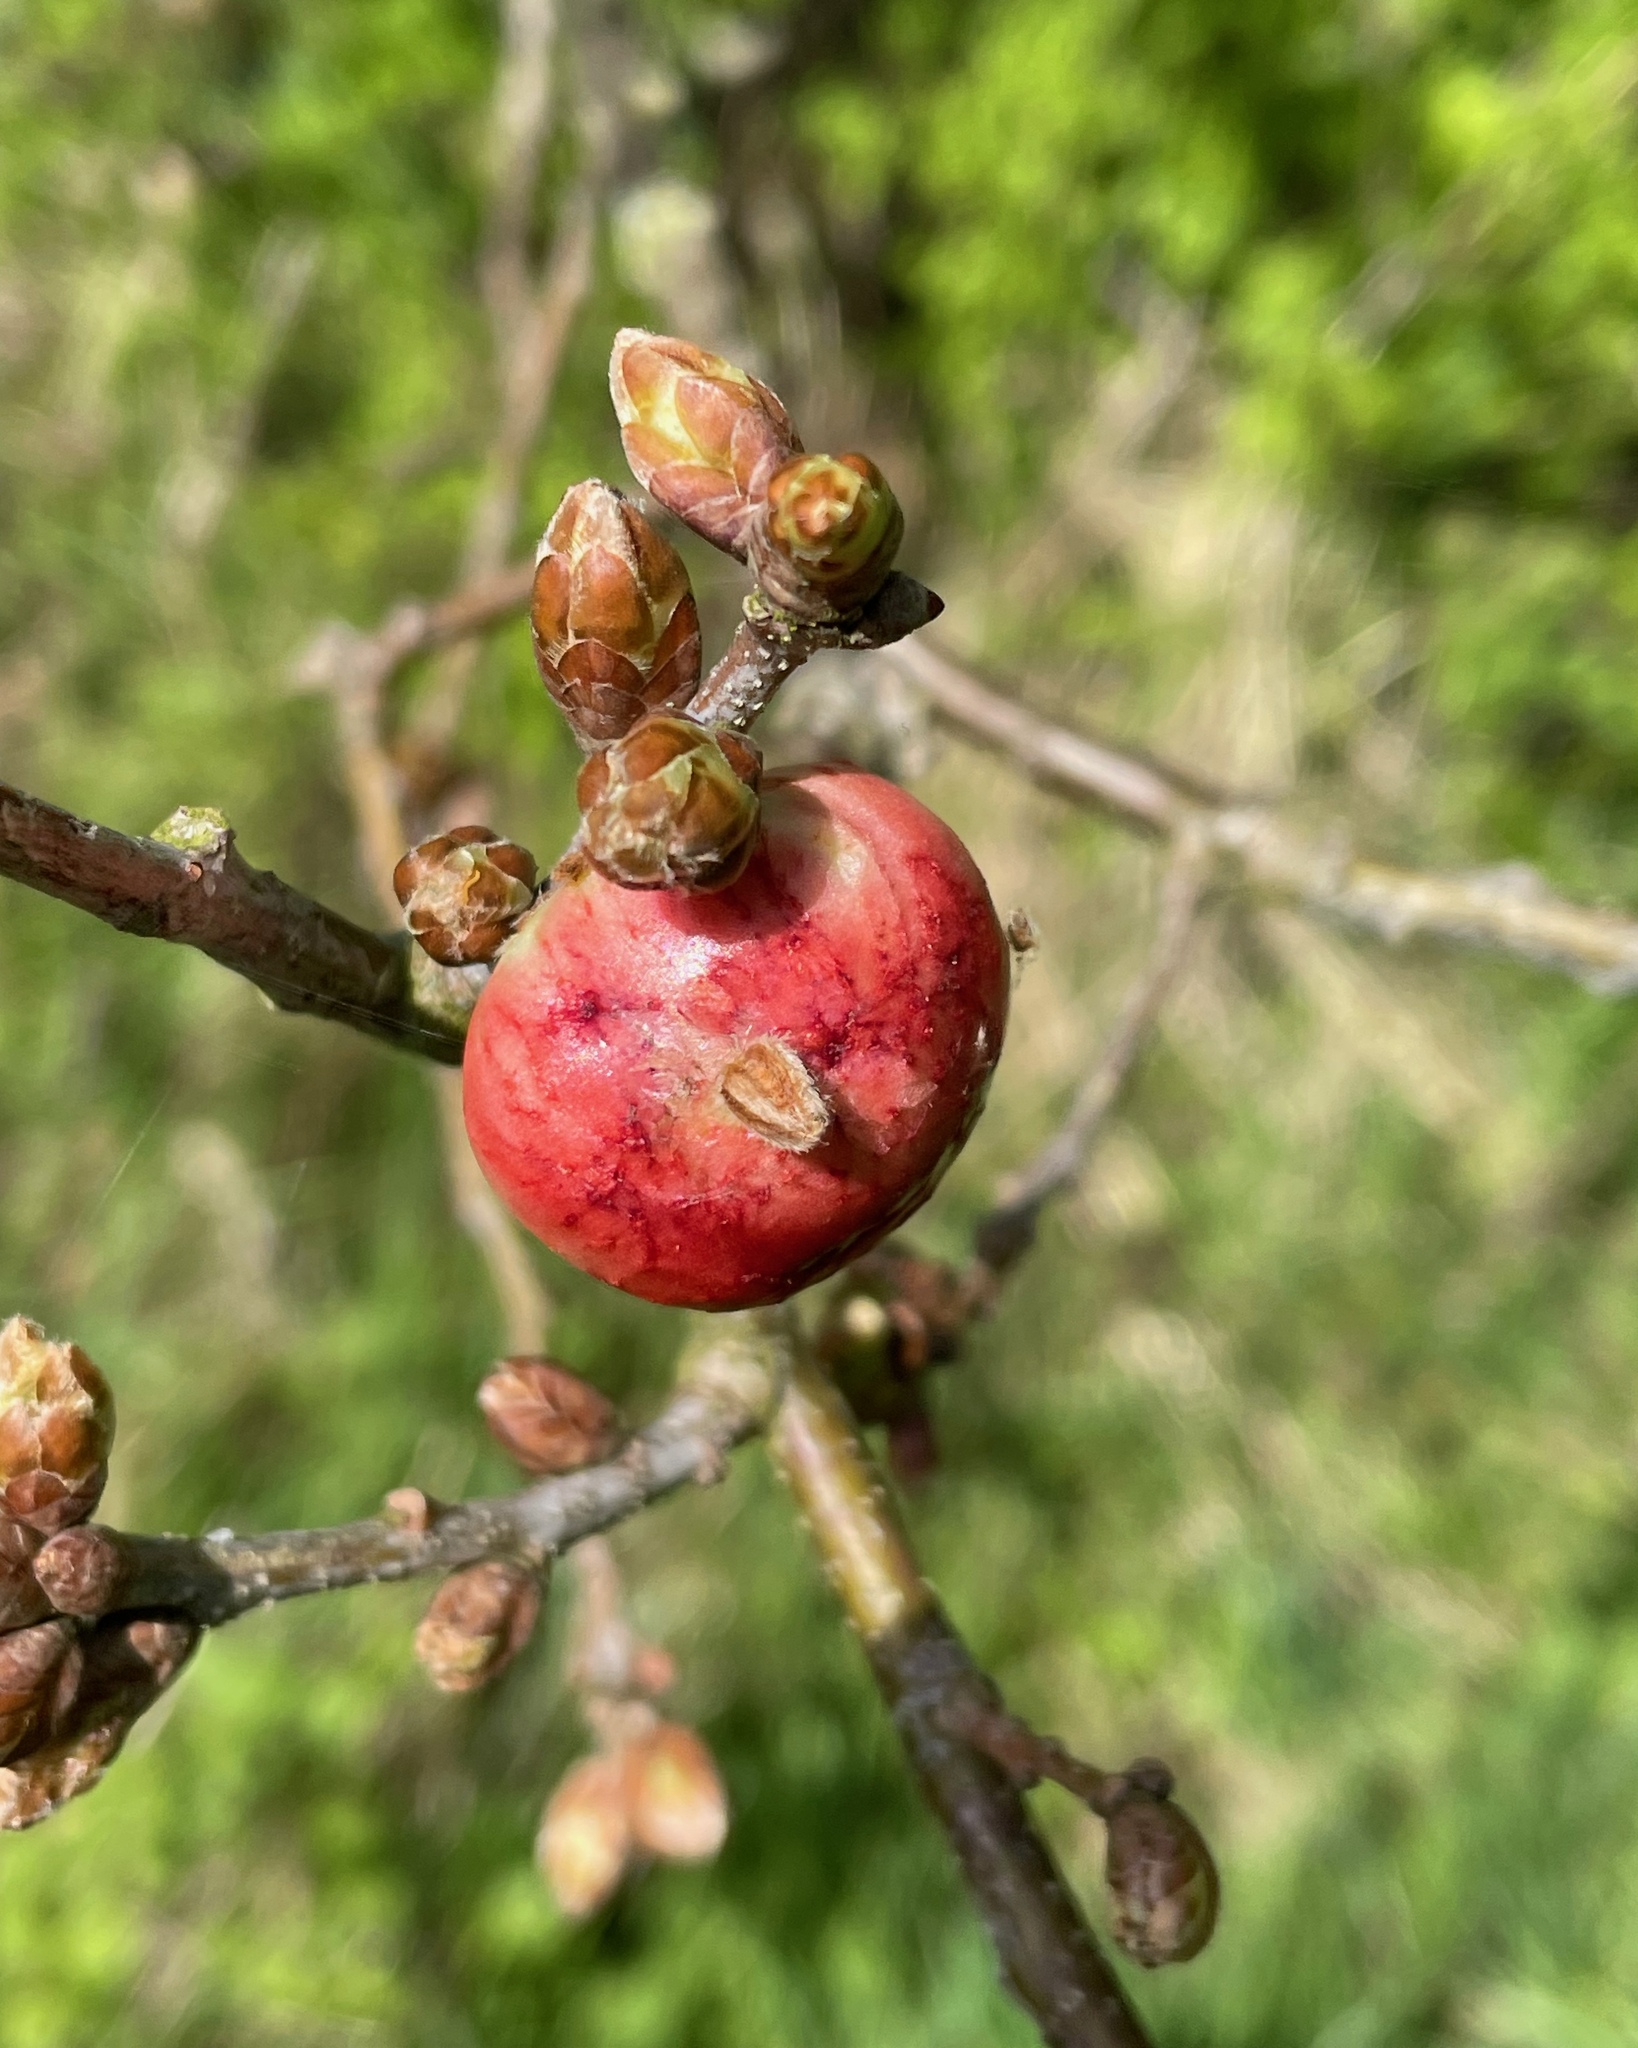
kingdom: Animalia
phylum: Arthropoda
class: Insecta
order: Hymenoptera
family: Cynipidae
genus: Biorhiza
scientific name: Biorhiza pallida
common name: Oak apple
